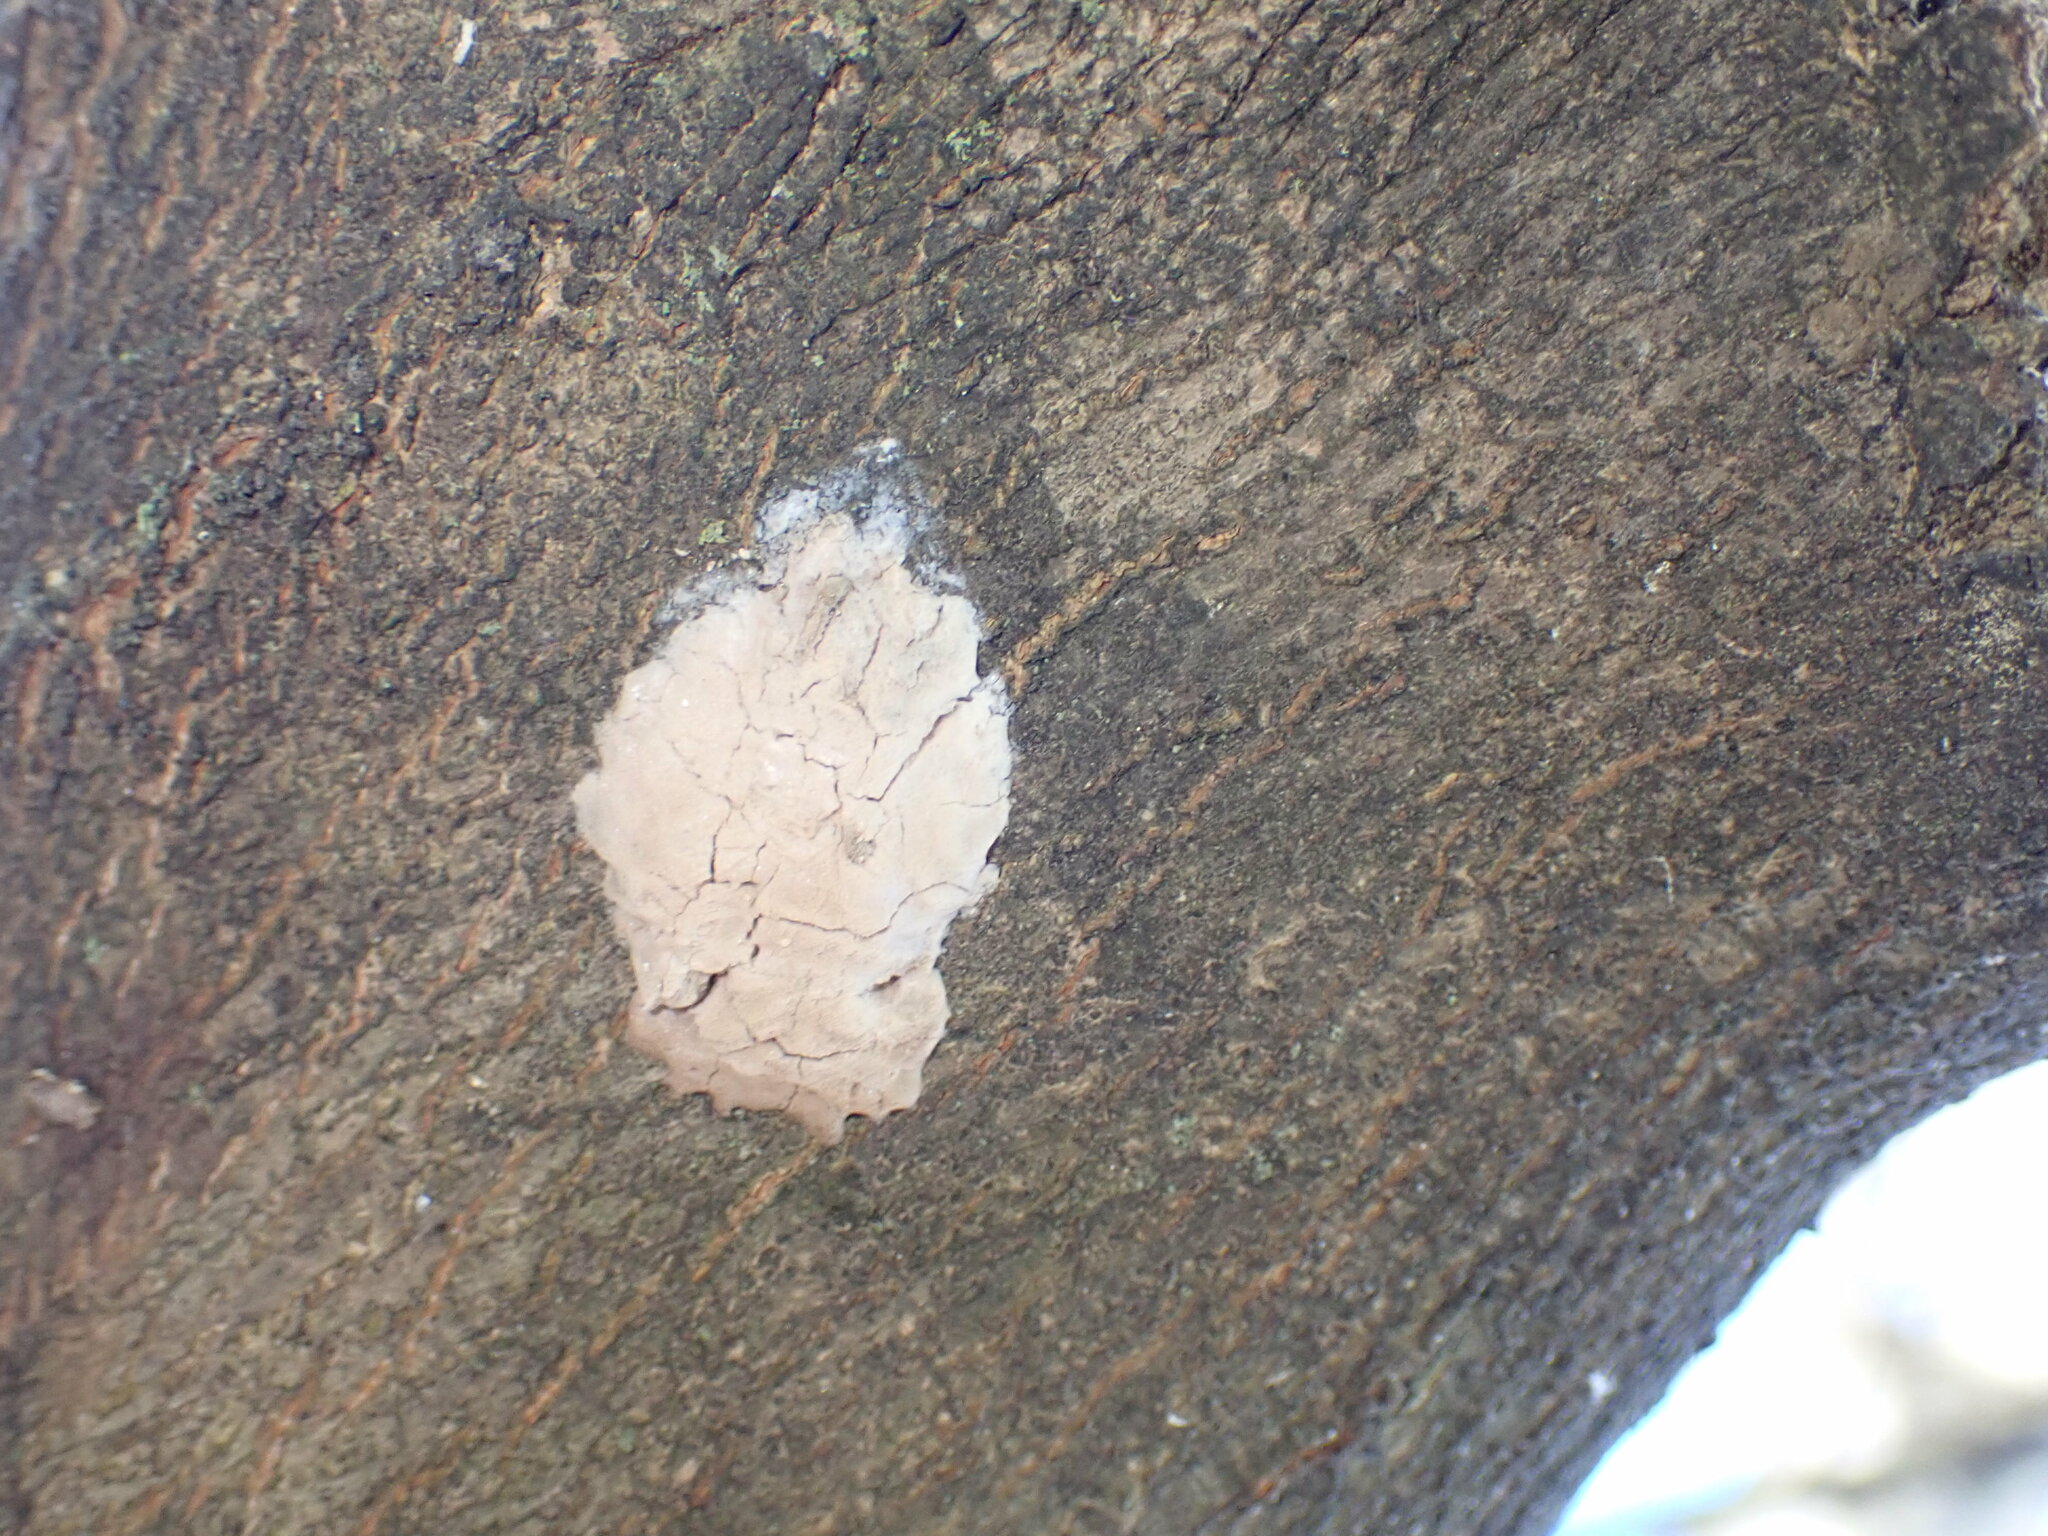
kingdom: Animalia
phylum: Arthropoda
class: Insecta
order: Hemiptera
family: Fulgoridae
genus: Lycorma
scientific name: Lycorma delicatula
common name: Spotted lanternfly
